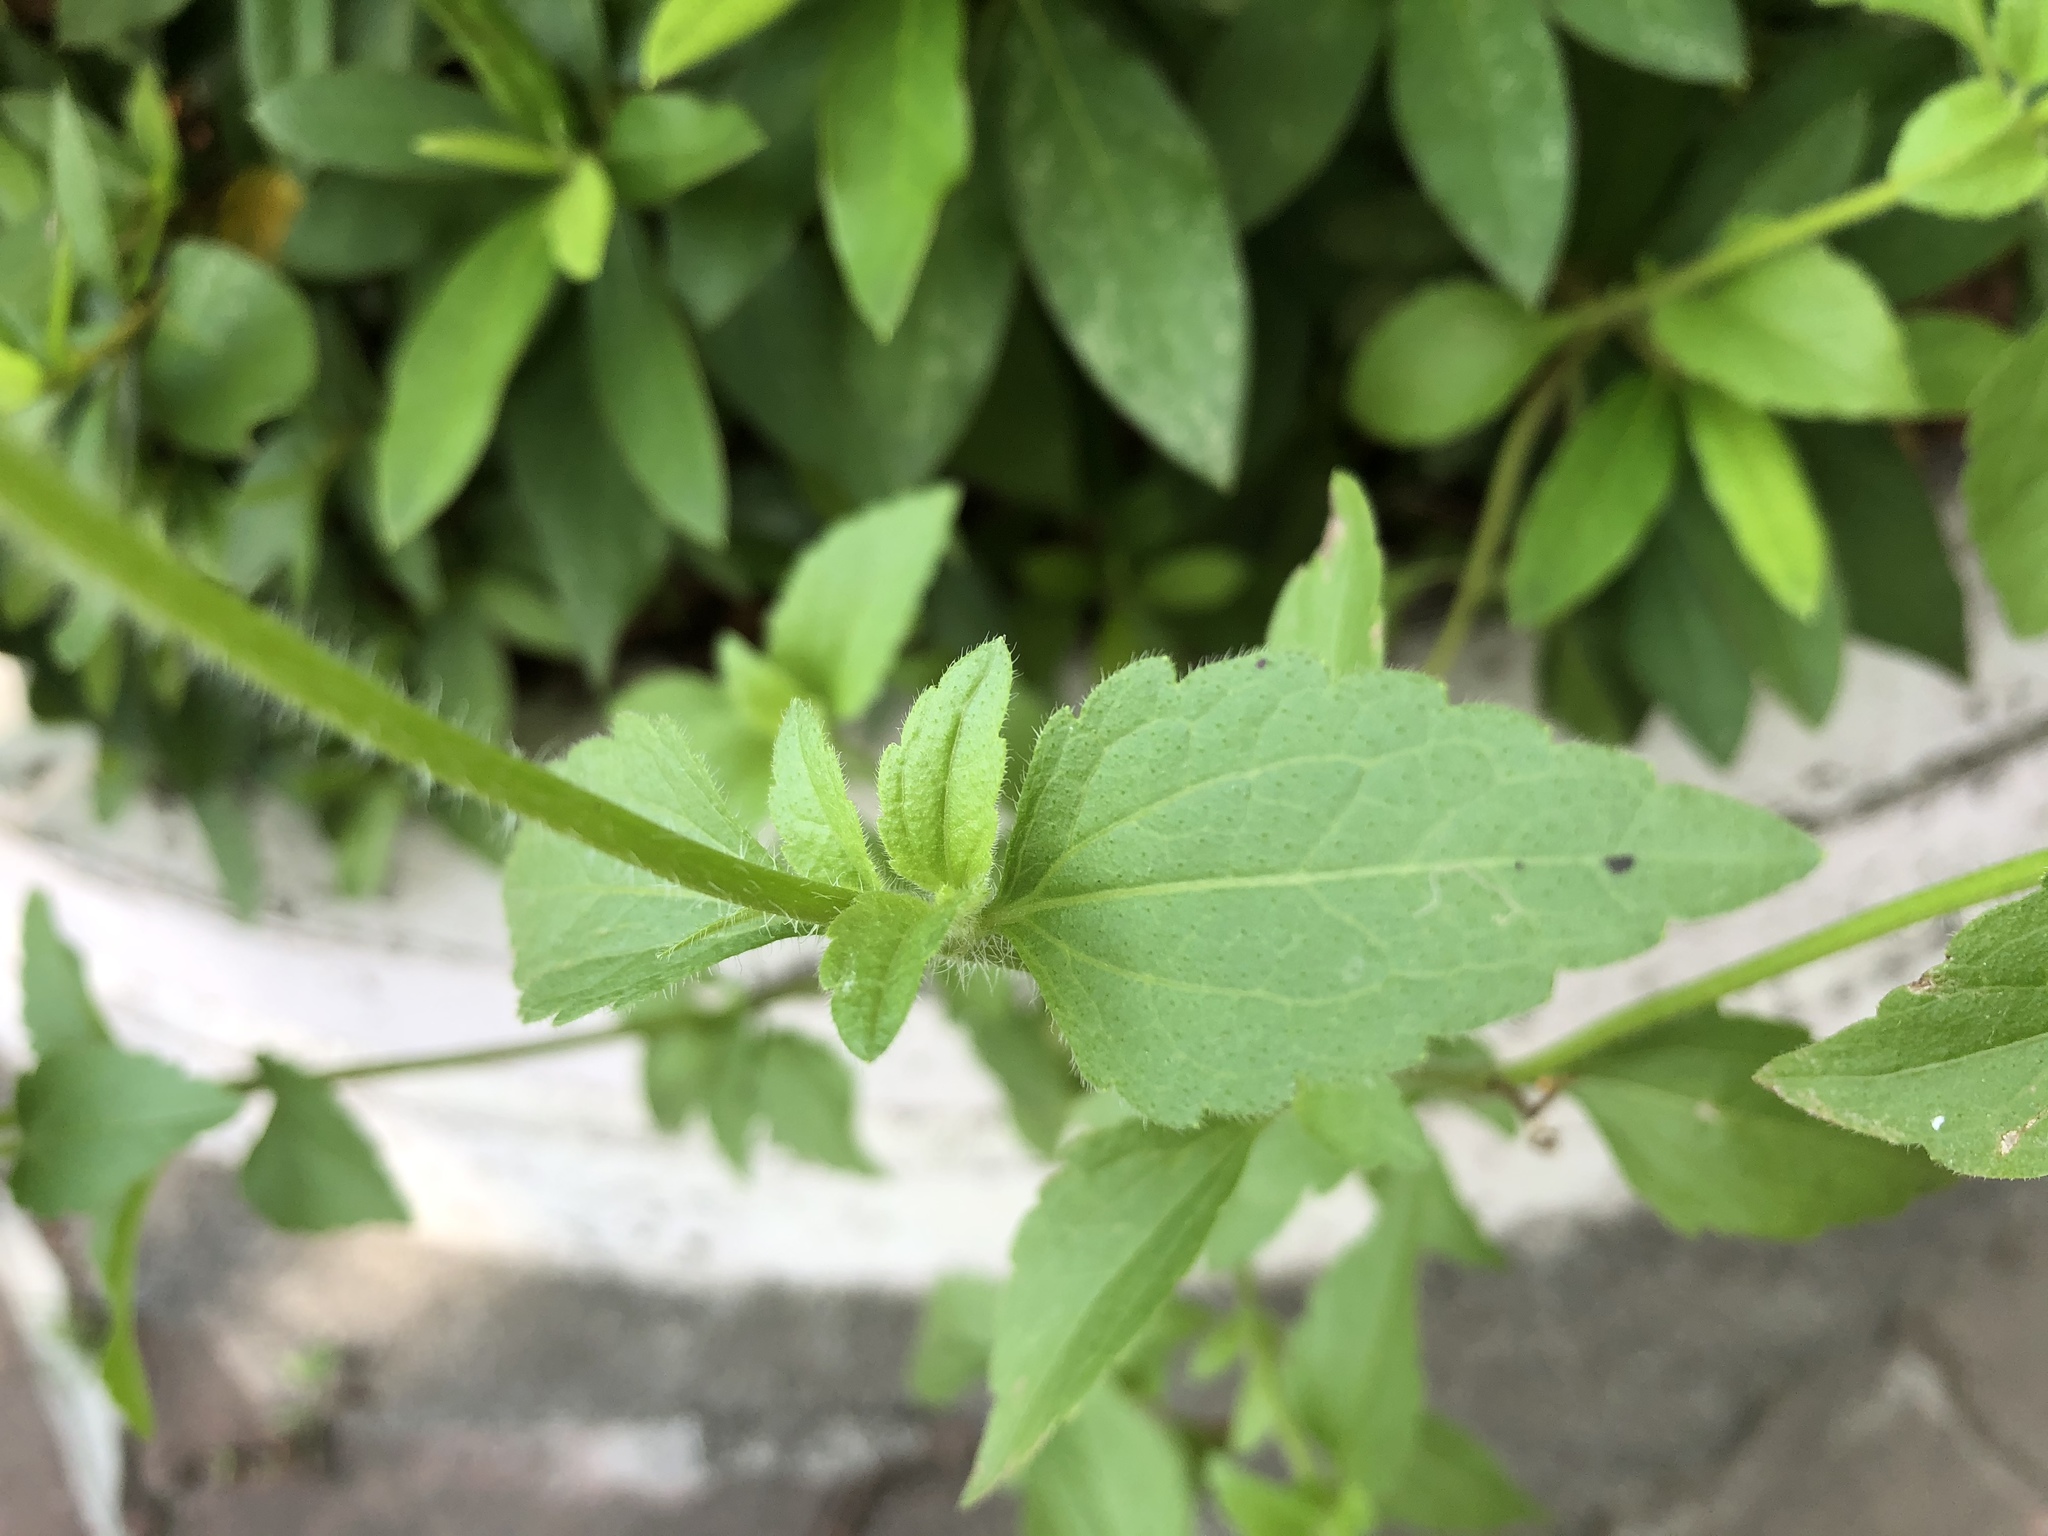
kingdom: Plantae
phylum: Tracheophyta
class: Magnoliopsida
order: Asterales
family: Asteraceae
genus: Praxelis
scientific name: Praxelis clematidea
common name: Praxelis
